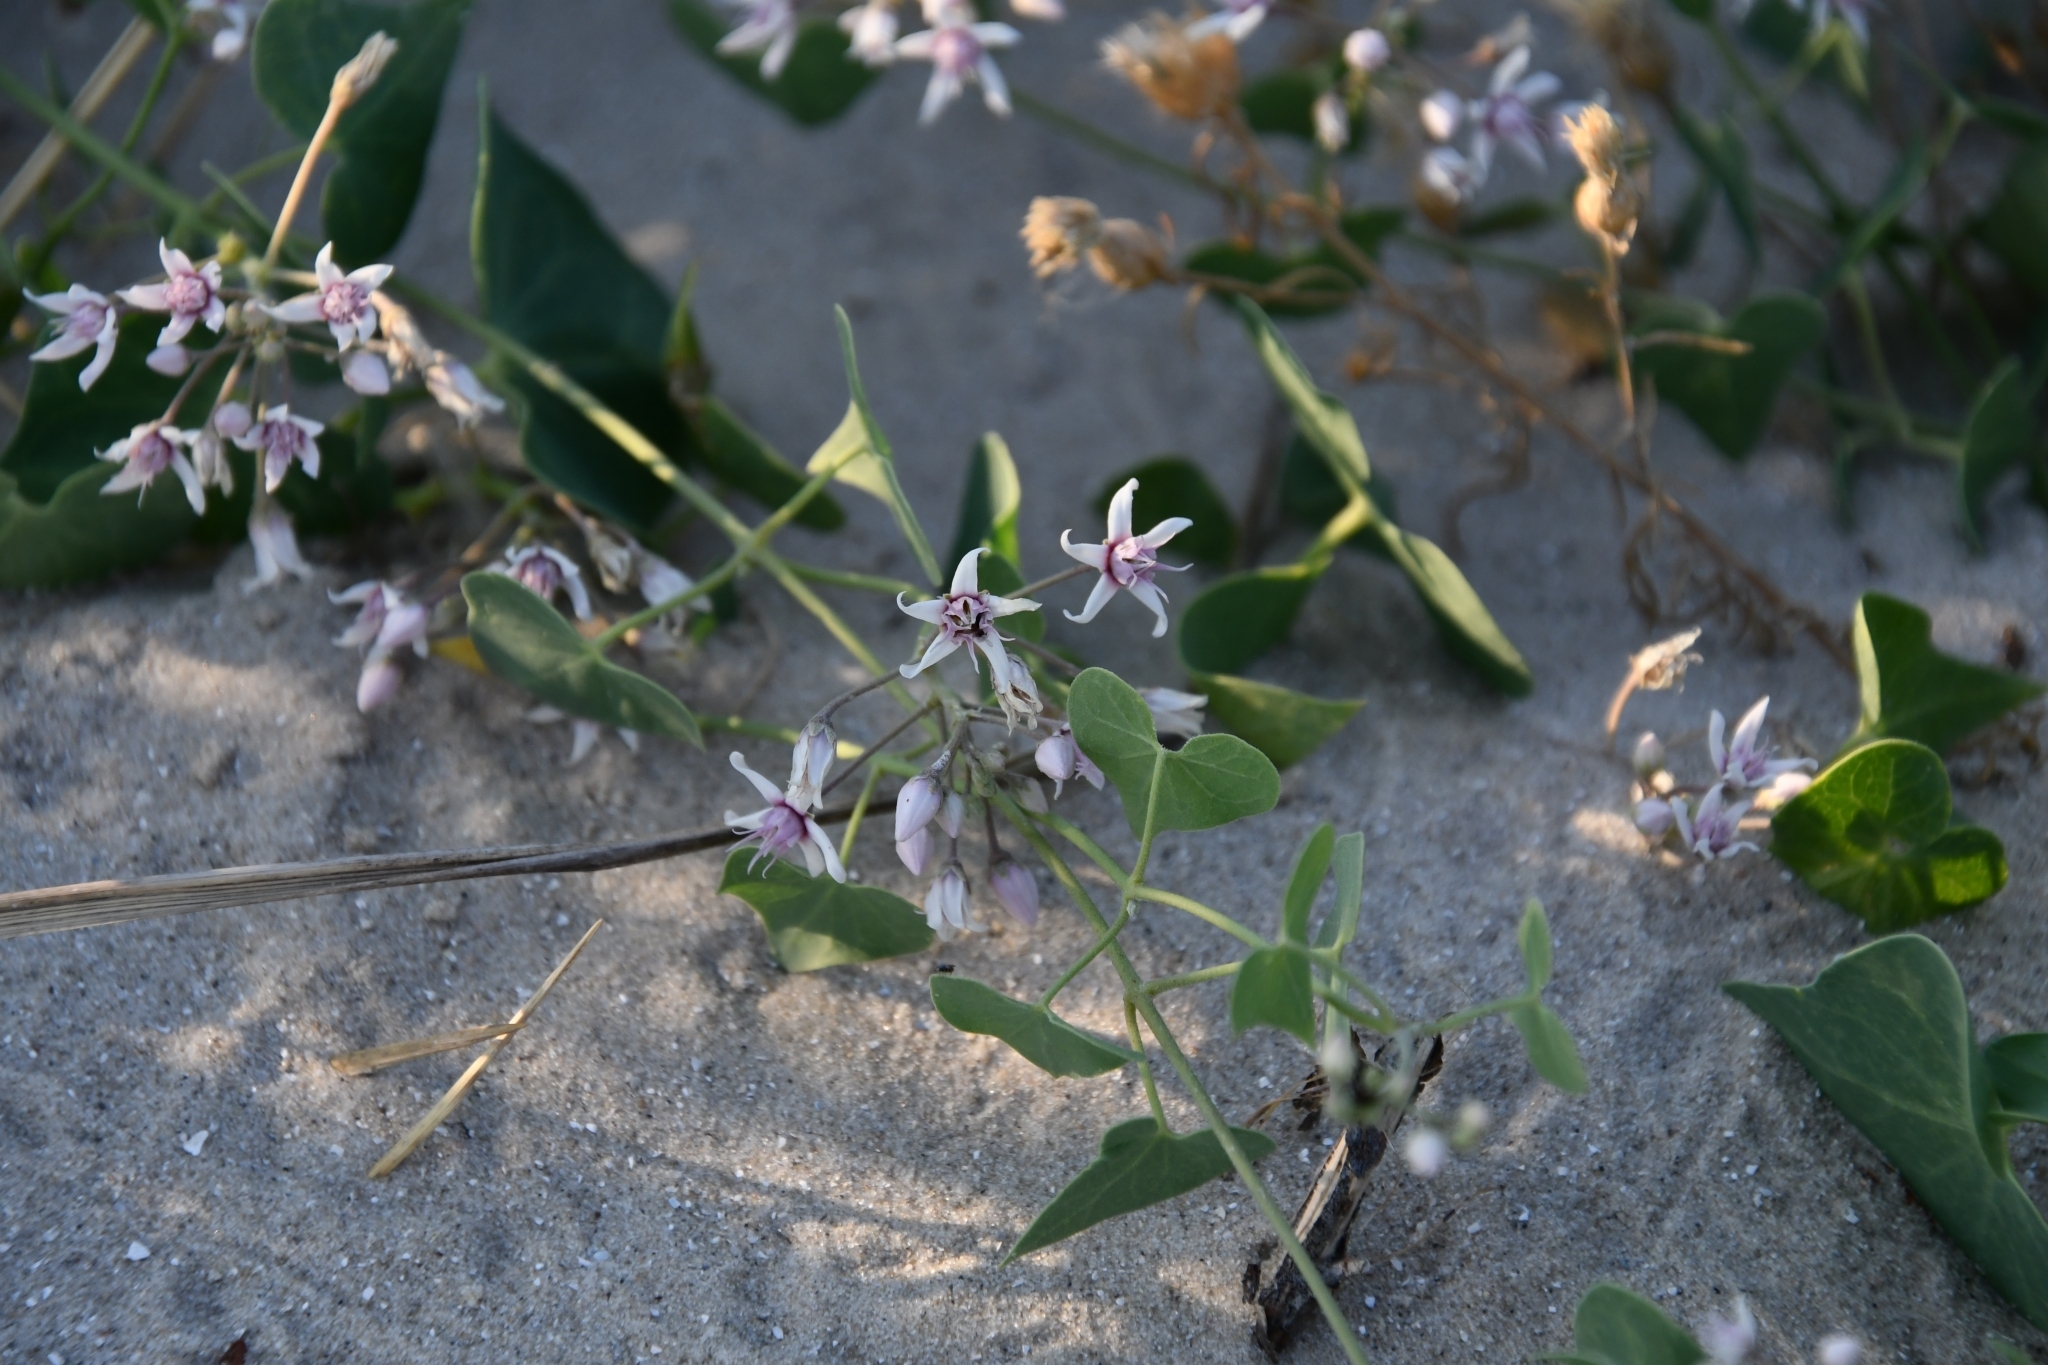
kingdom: Plantae
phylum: Tracheophyta
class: Magnoliopsida
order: Gentianales
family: Apocynaceae
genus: Cynanchum
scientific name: Cynanchum acutum
